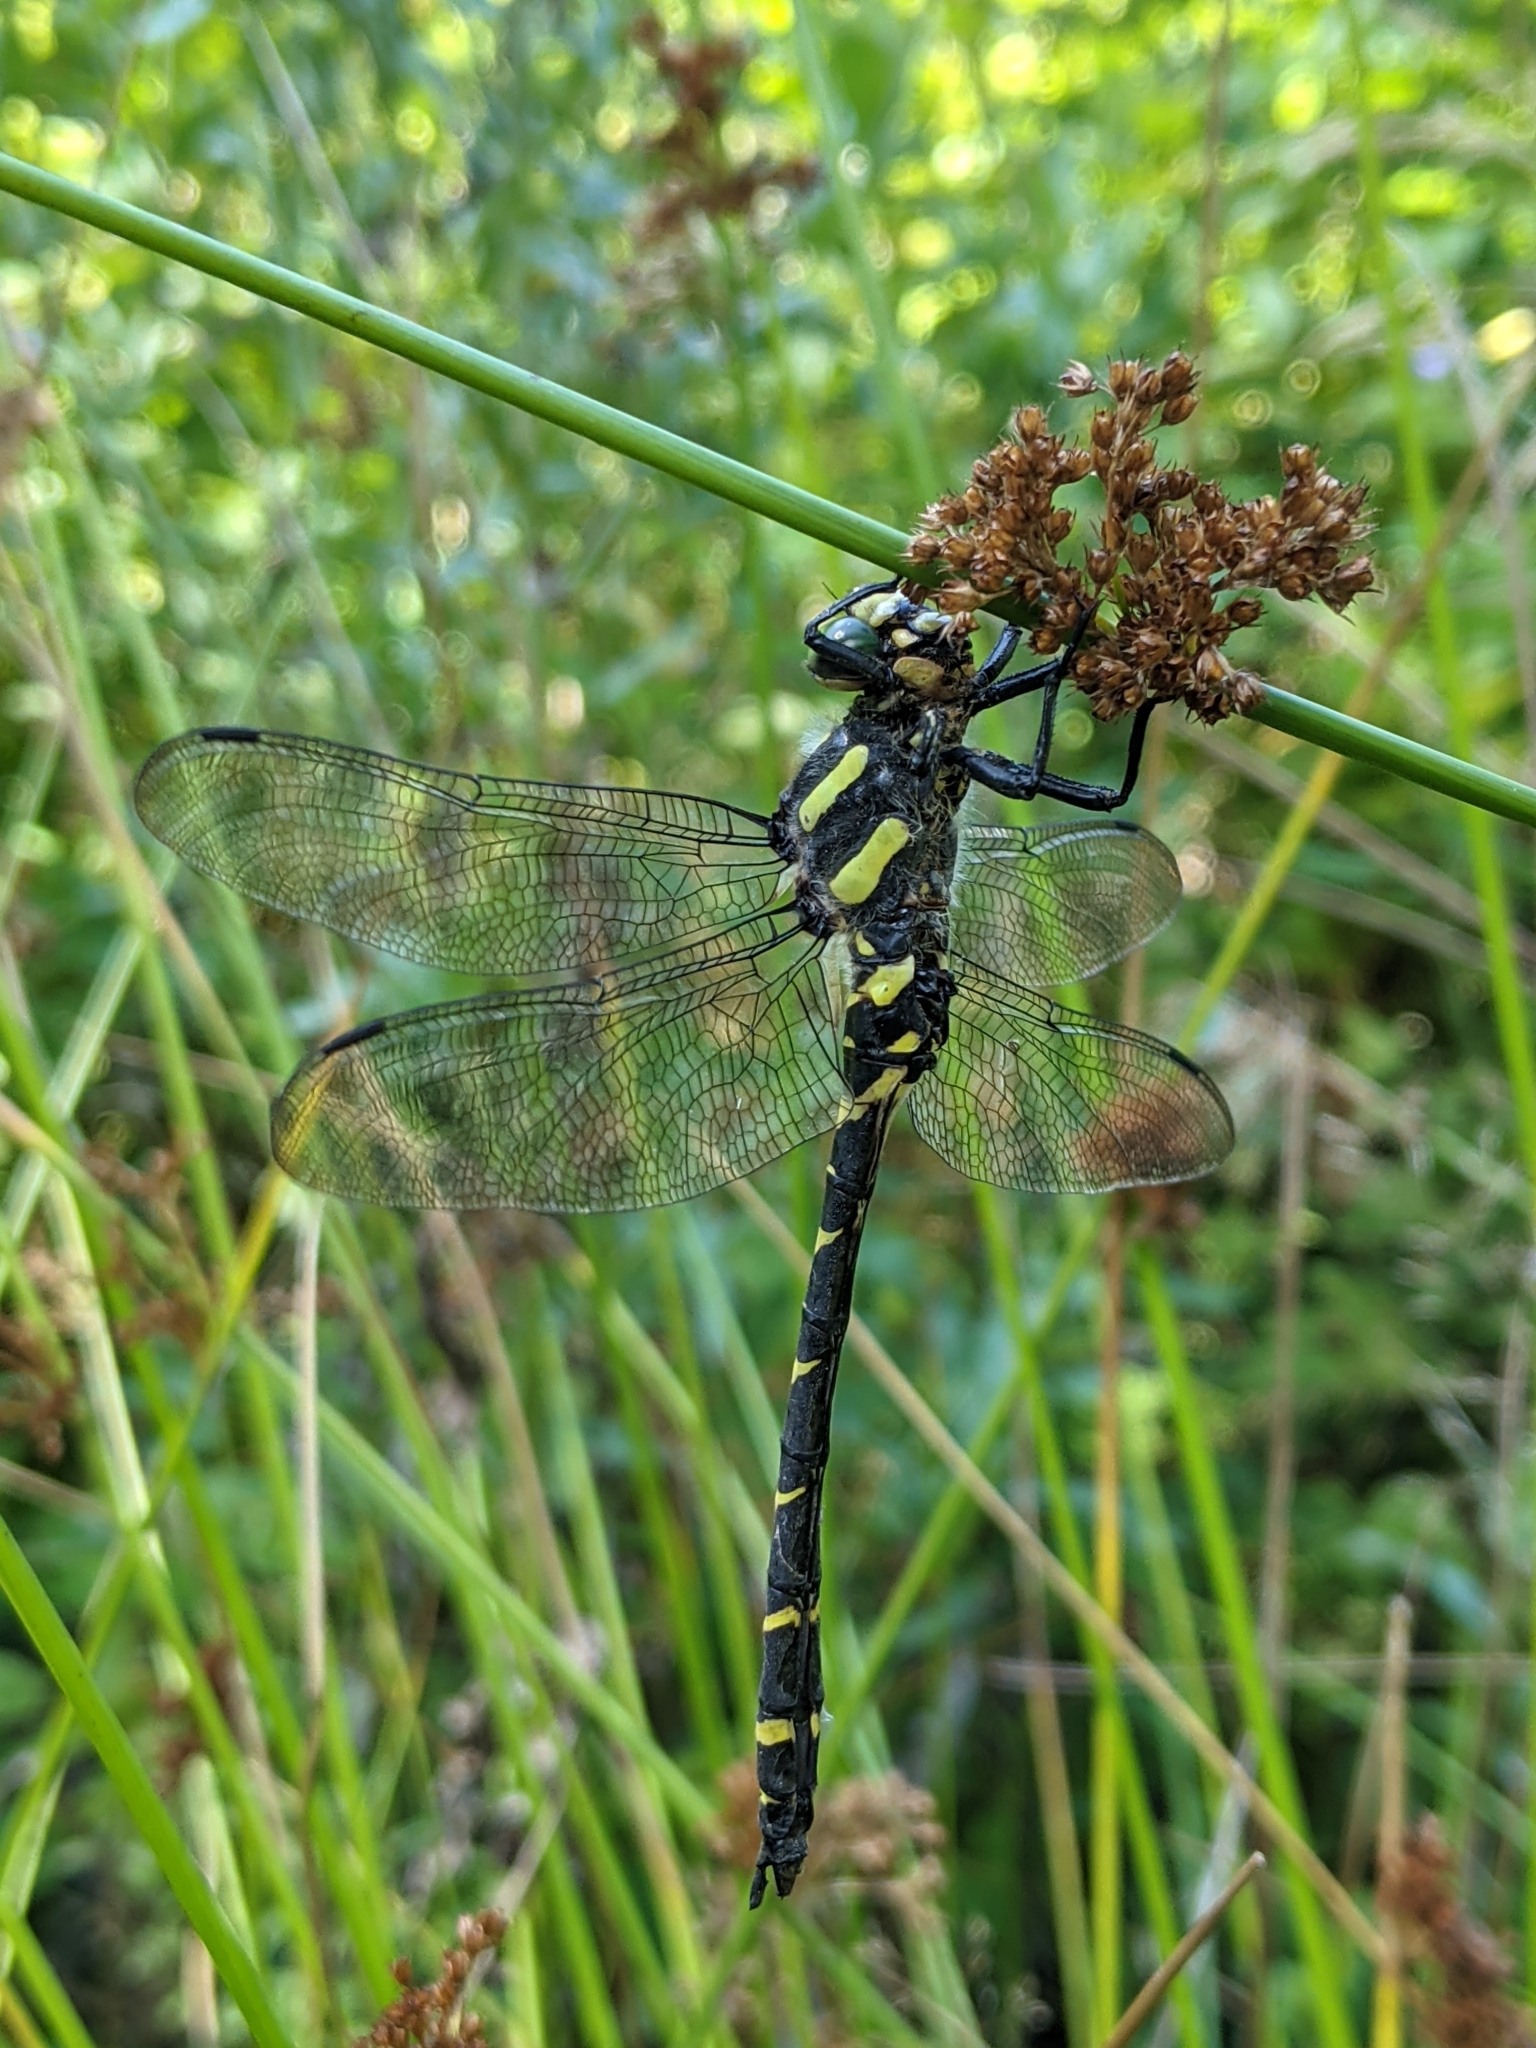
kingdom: Animalia
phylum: Arthropoda
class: Insecta
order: Odonata
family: Cordulegastridae
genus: Cordulegaster
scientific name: Cordulegaster bidentata
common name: Sombre goldenring
